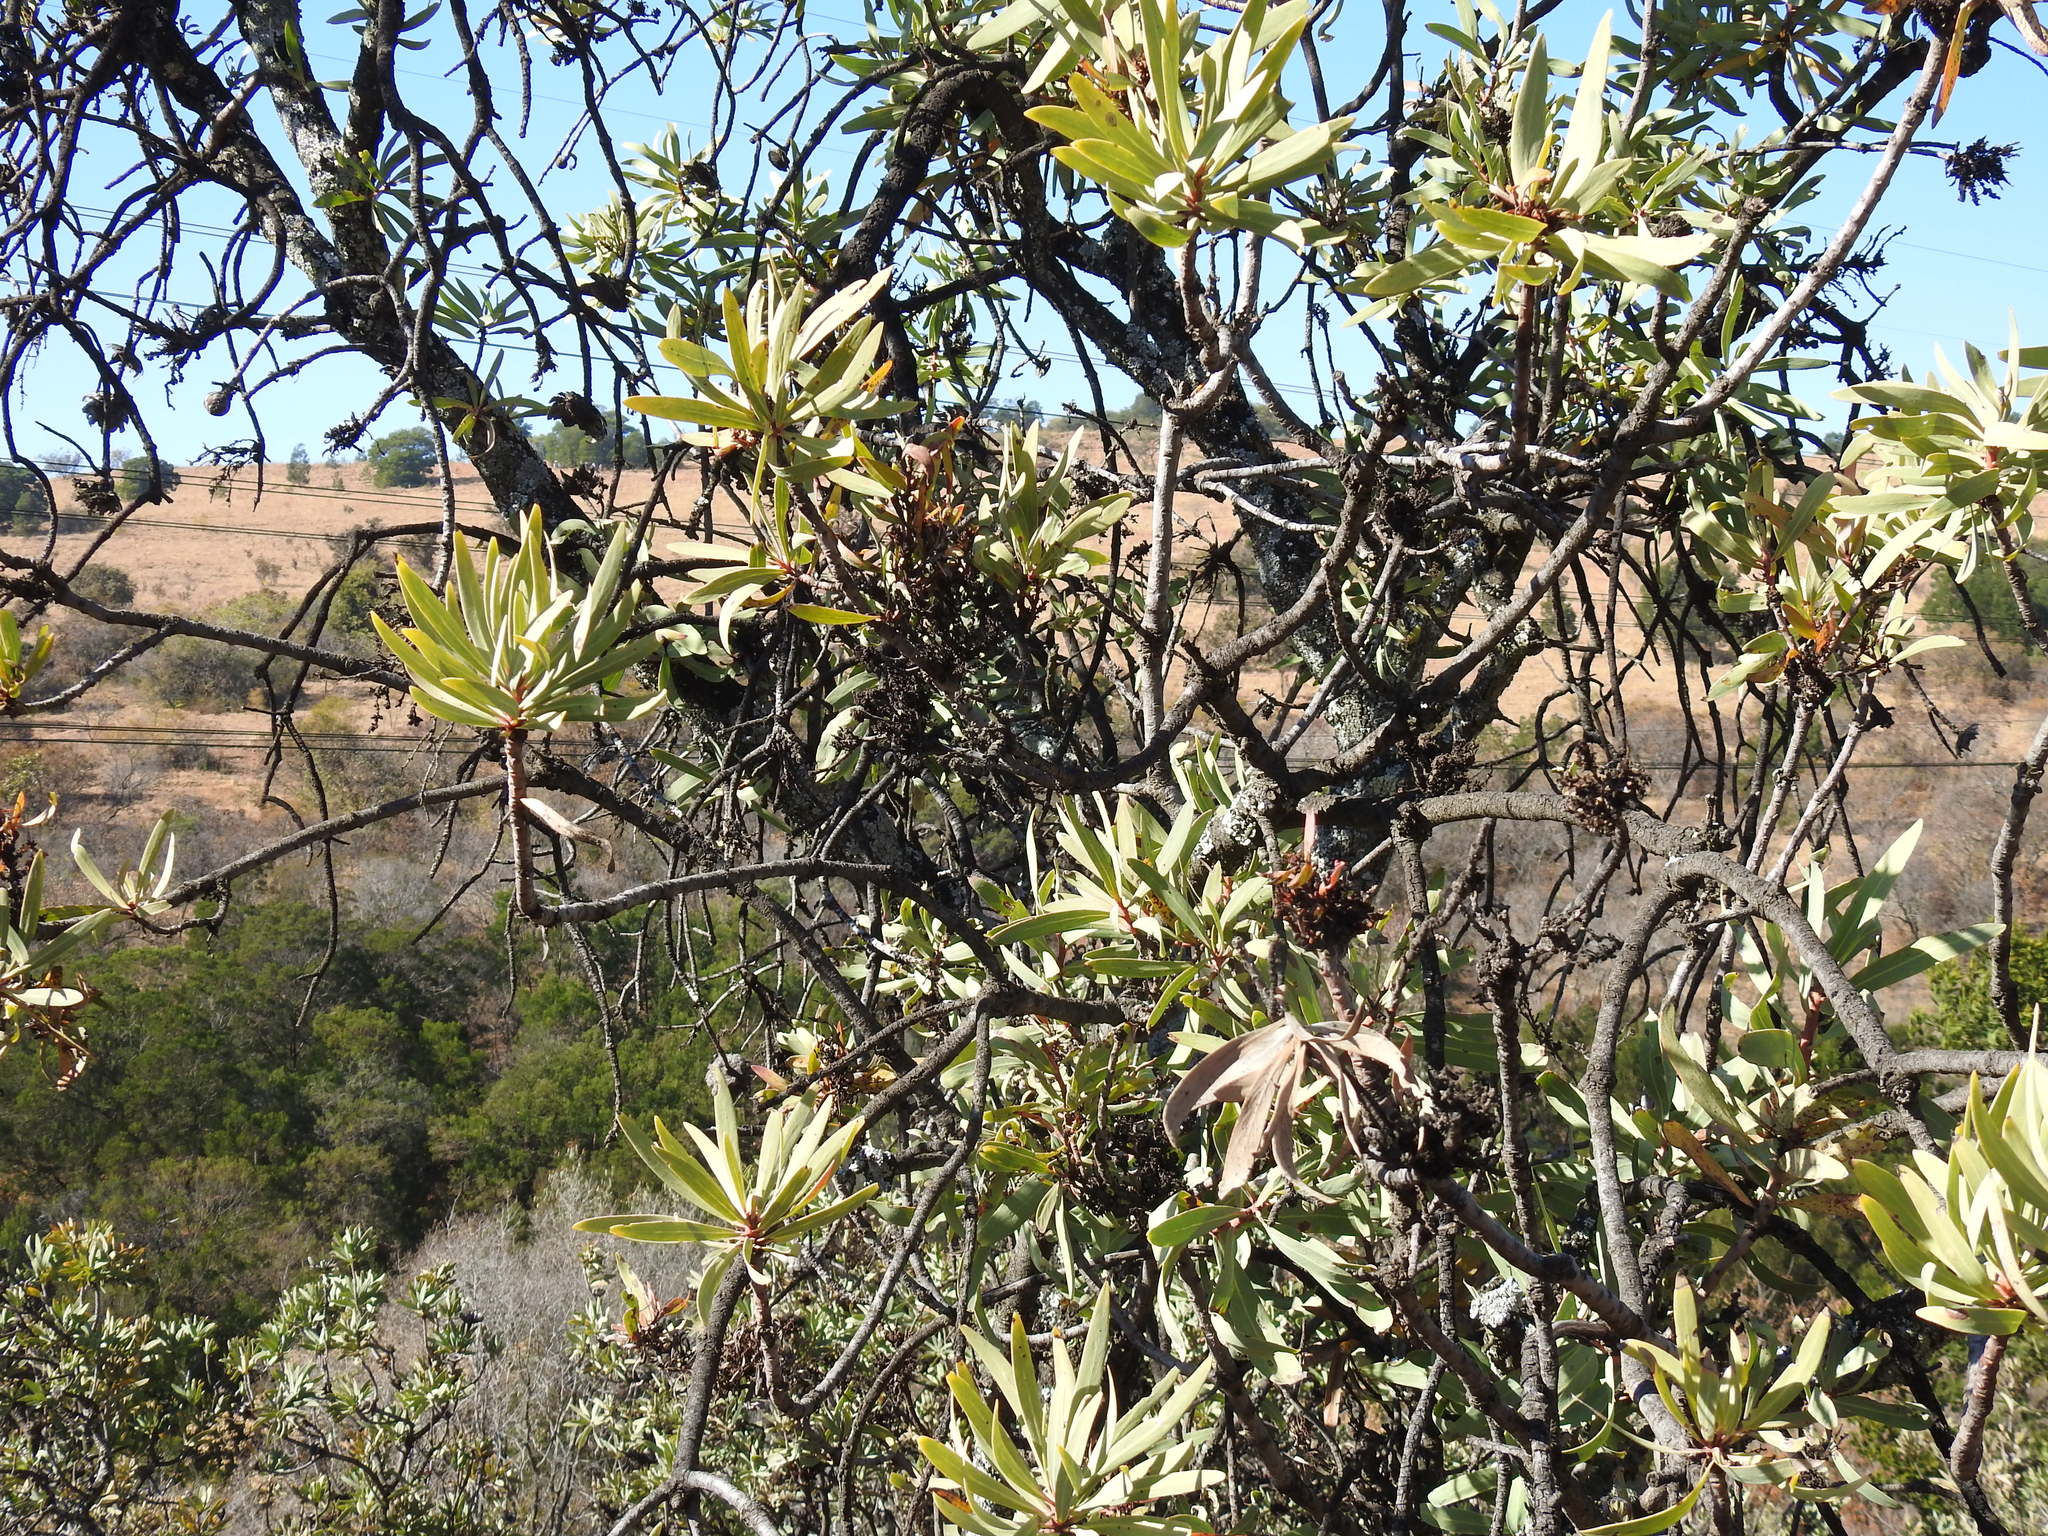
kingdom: Plantae
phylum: Tracheophyta
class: Magnoliopsida
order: Proteales
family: Proteaceae
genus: Protea
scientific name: Protea caffra
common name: Common sugarbush
